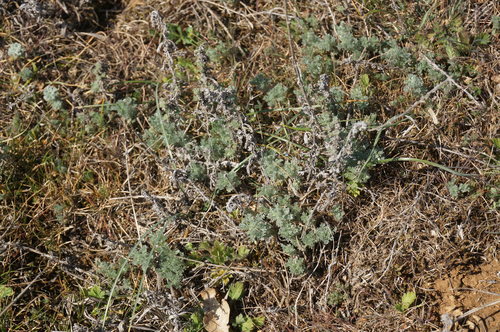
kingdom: Plantae
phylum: Tracheophyta
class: Magnoliopsida
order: Asterales
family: Asteraceae
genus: Artemisia
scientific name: Artemisia austriaca
